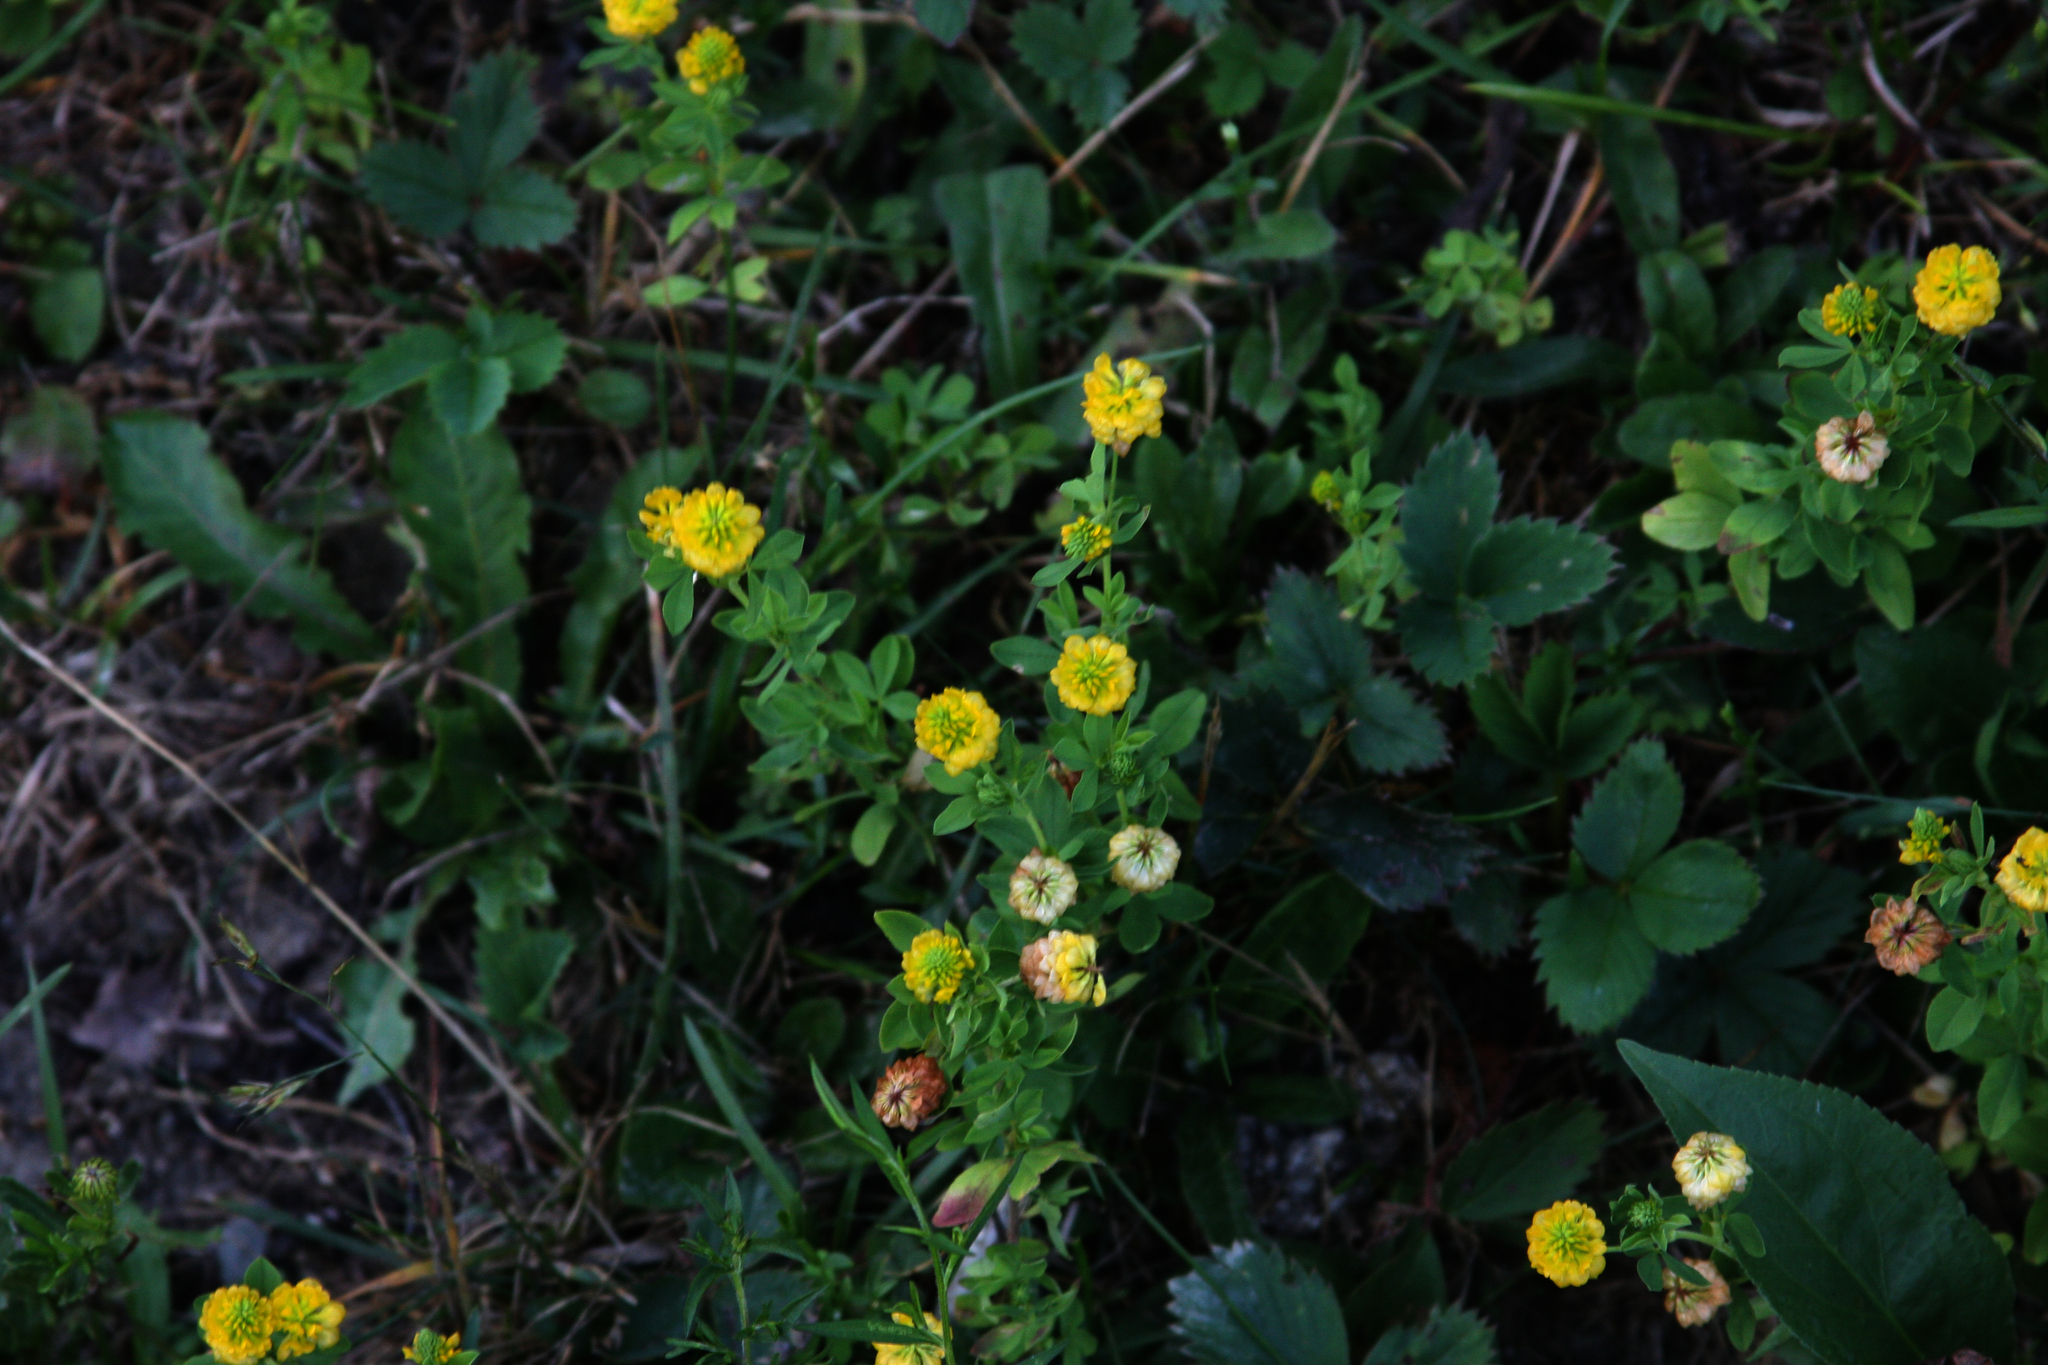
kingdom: Plantae
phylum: Tracheophyta
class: Magnoliopsida
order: Fabales
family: Fabaceae
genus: Trifolium
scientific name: Trifolium aureum
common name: Golden clover
